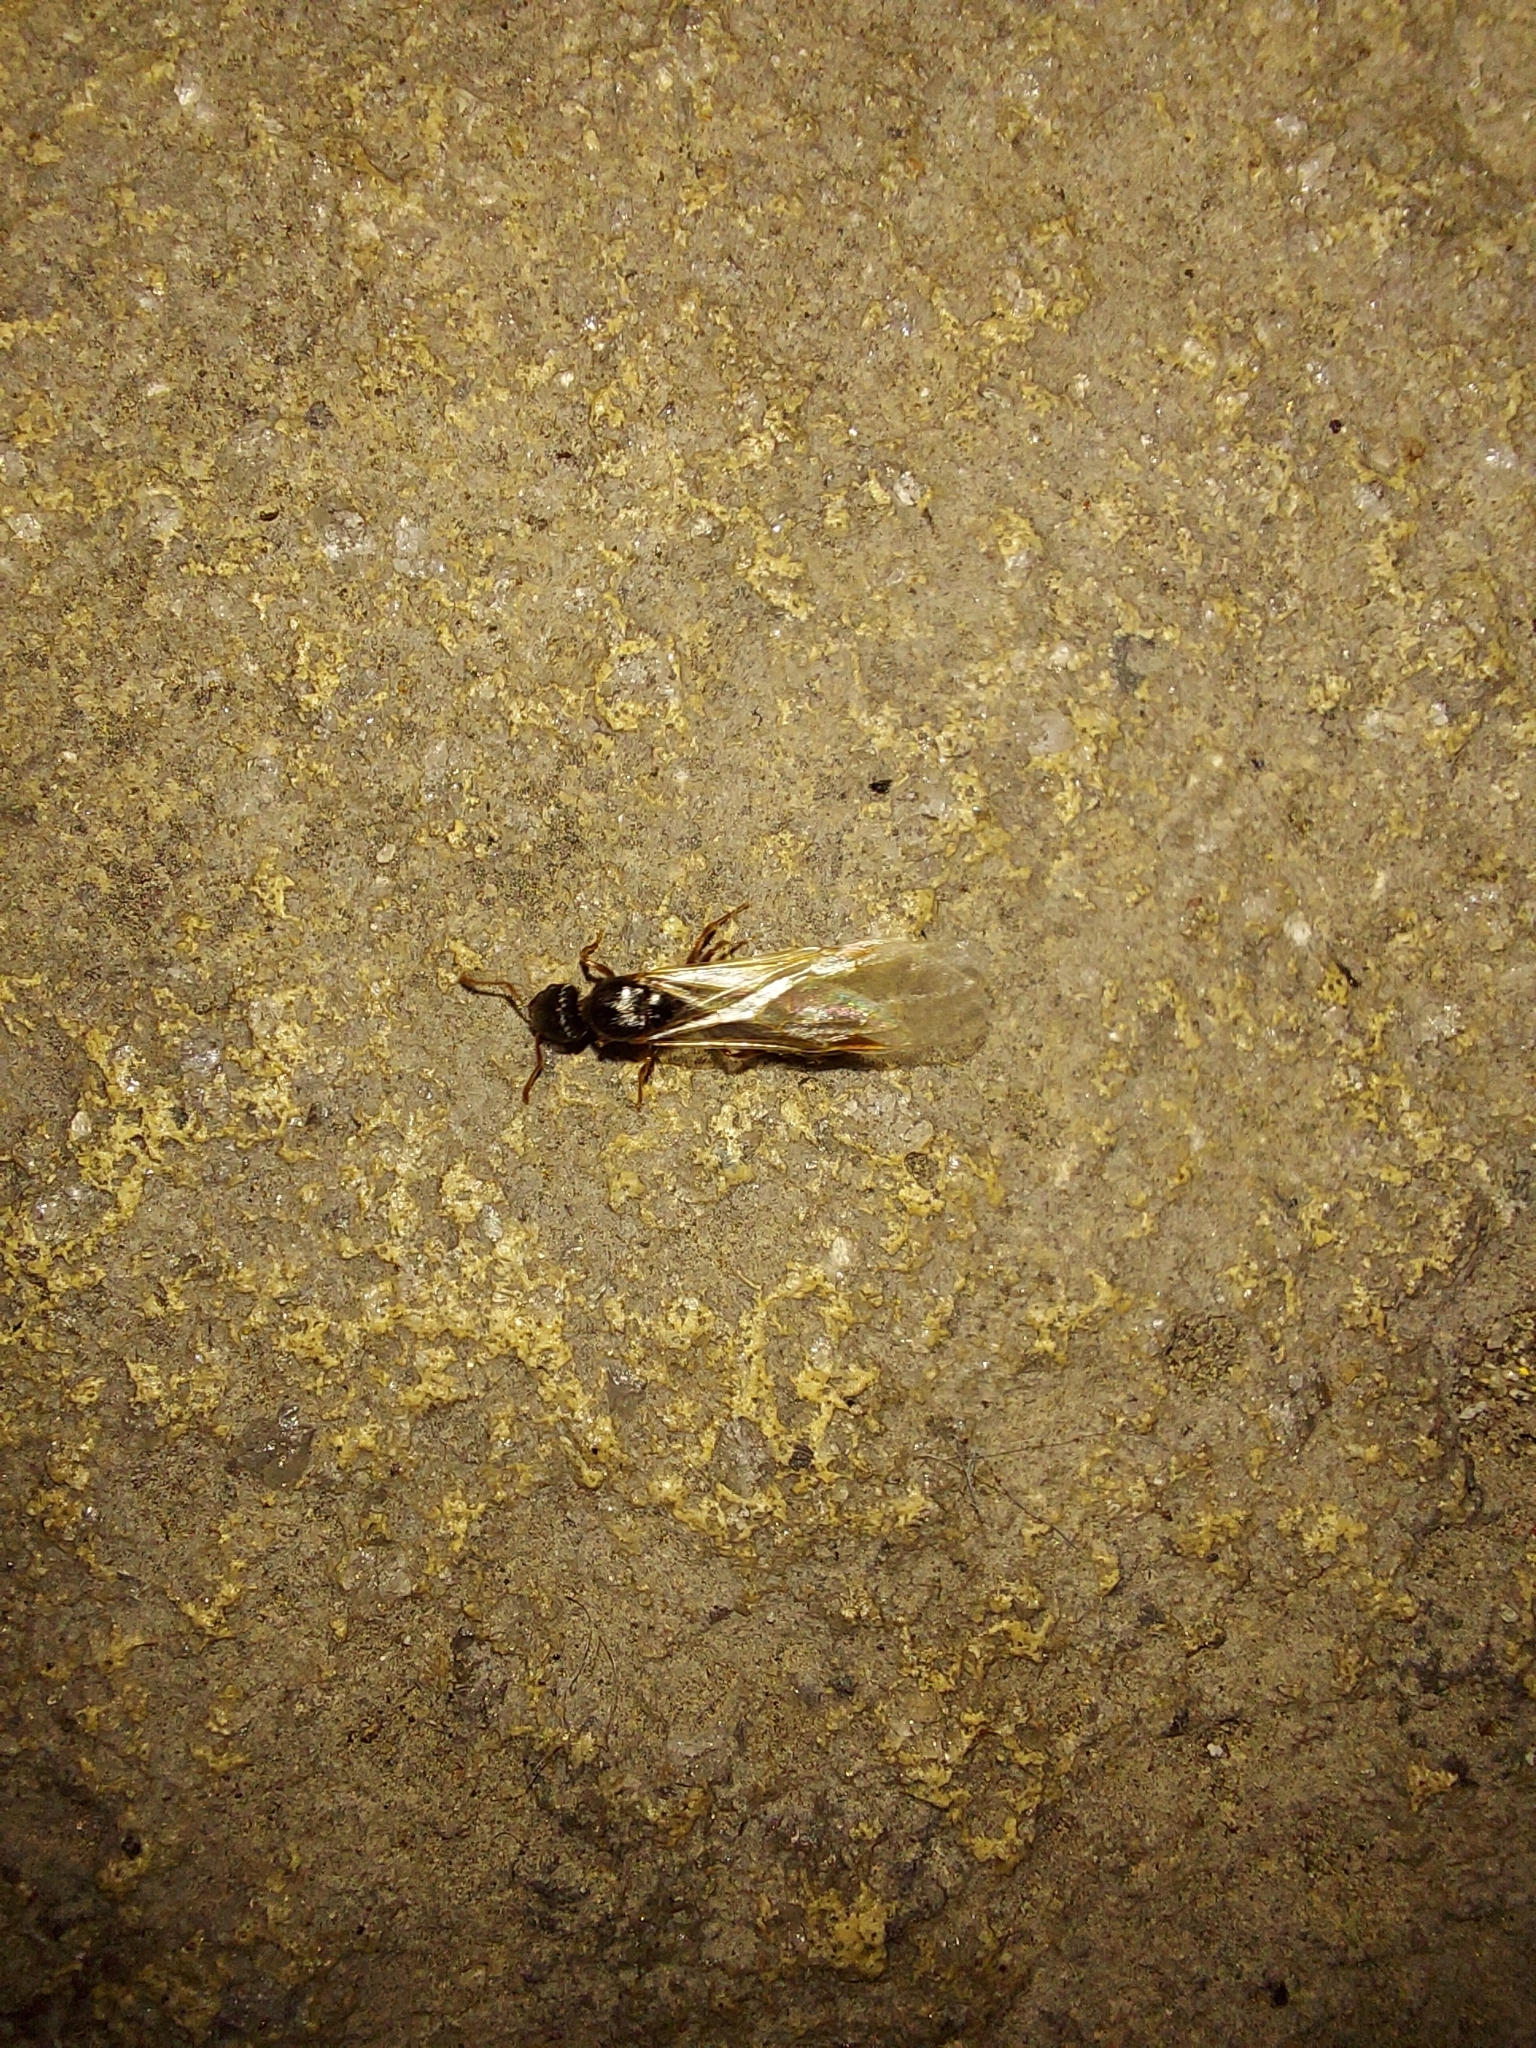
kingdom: Animalia
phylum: Arthropoda
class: Insecta
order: Hymenoptera
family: Formicidae
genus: Tetramorium
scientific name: Tetramorium immigrans
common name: Pavement ant
